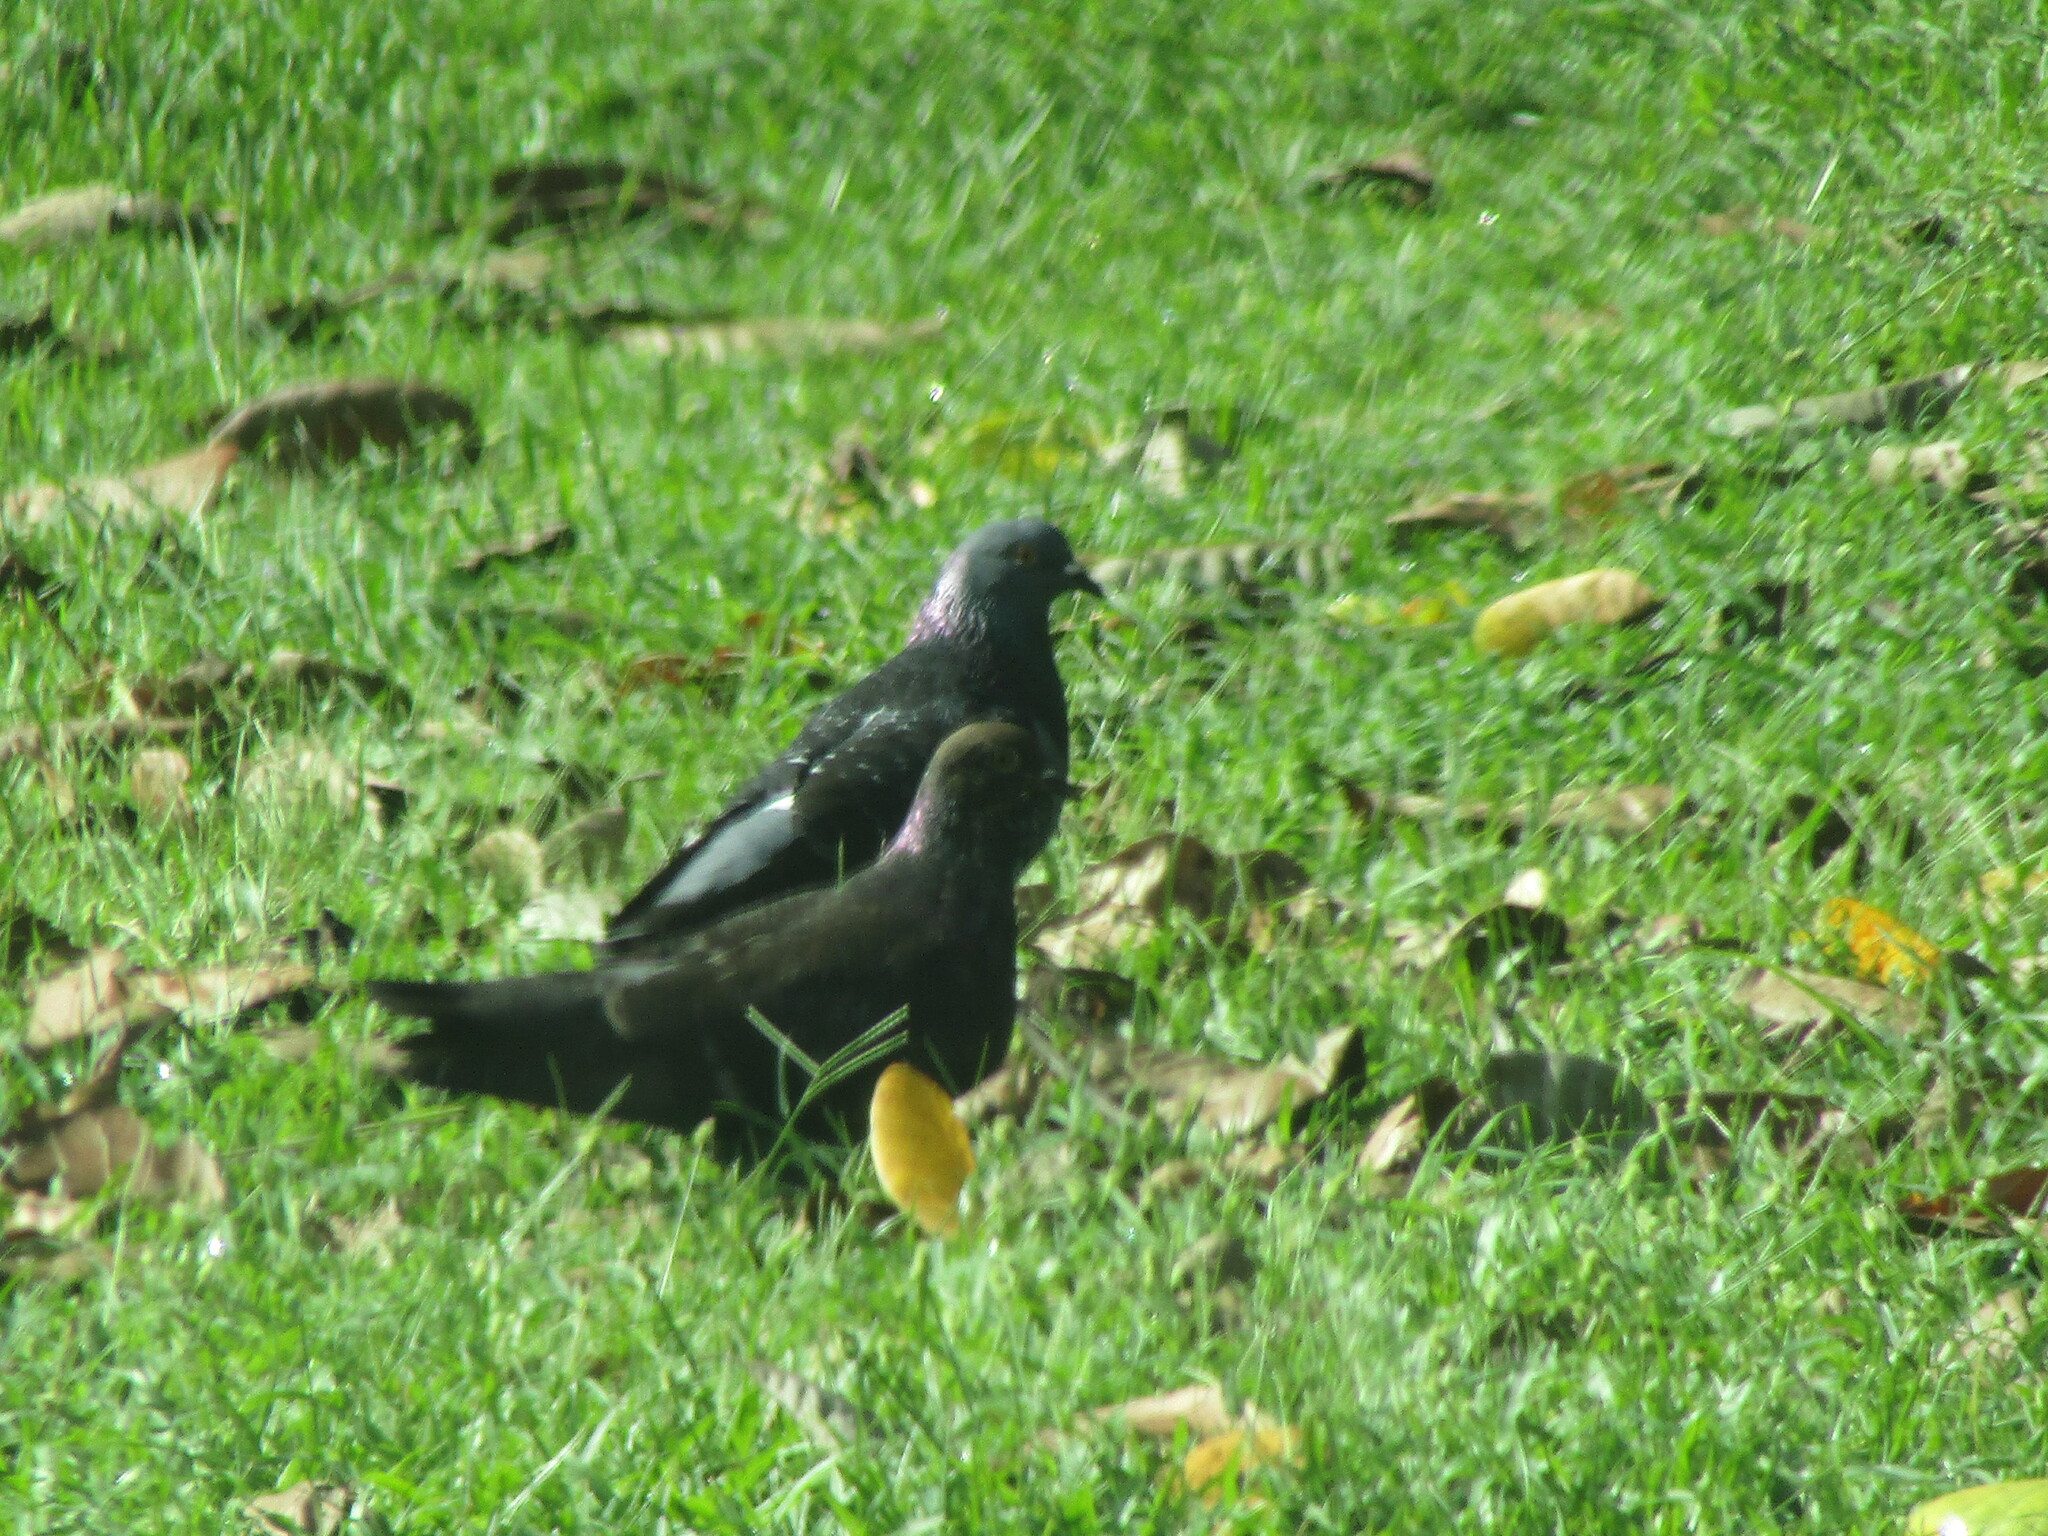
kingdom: Animalia
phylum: Chordata
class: Aves
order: Columbiformes
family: Columbidae
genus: Columba
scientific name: Columba livia
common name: Rock pigeon
